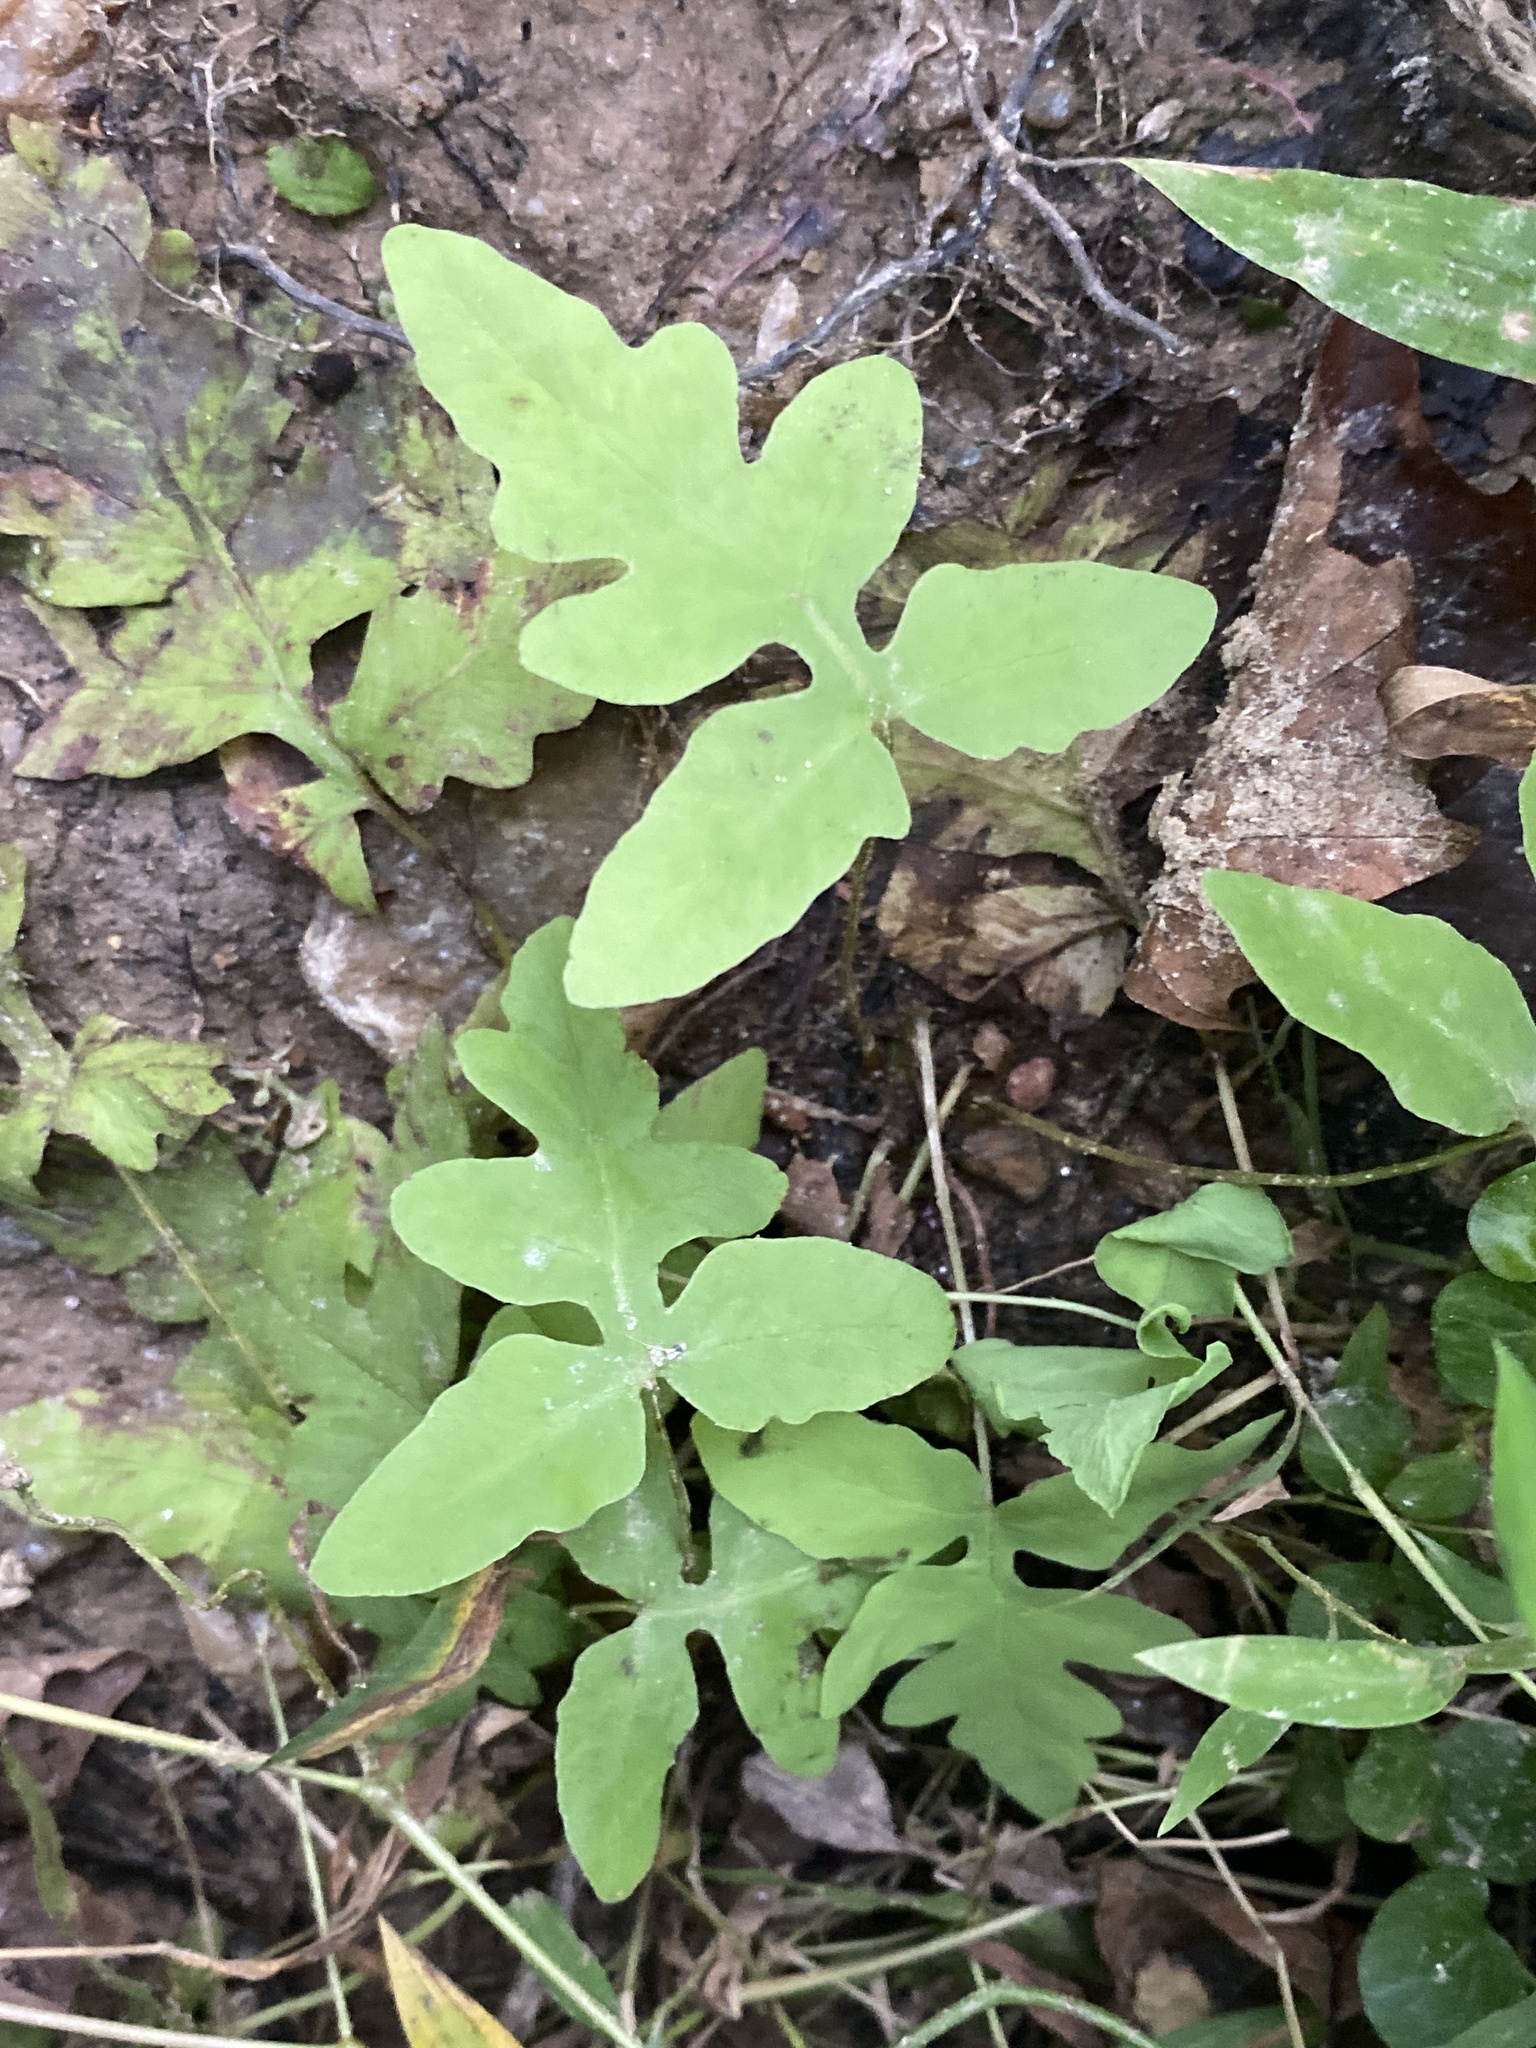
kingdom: Plantae
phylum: Tracheophyta
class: Polypodiopsida
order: Polypodiales
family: Onocleaceae
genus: Onoclea
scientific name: Onoclea sensibilis
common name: Sensitive fern
